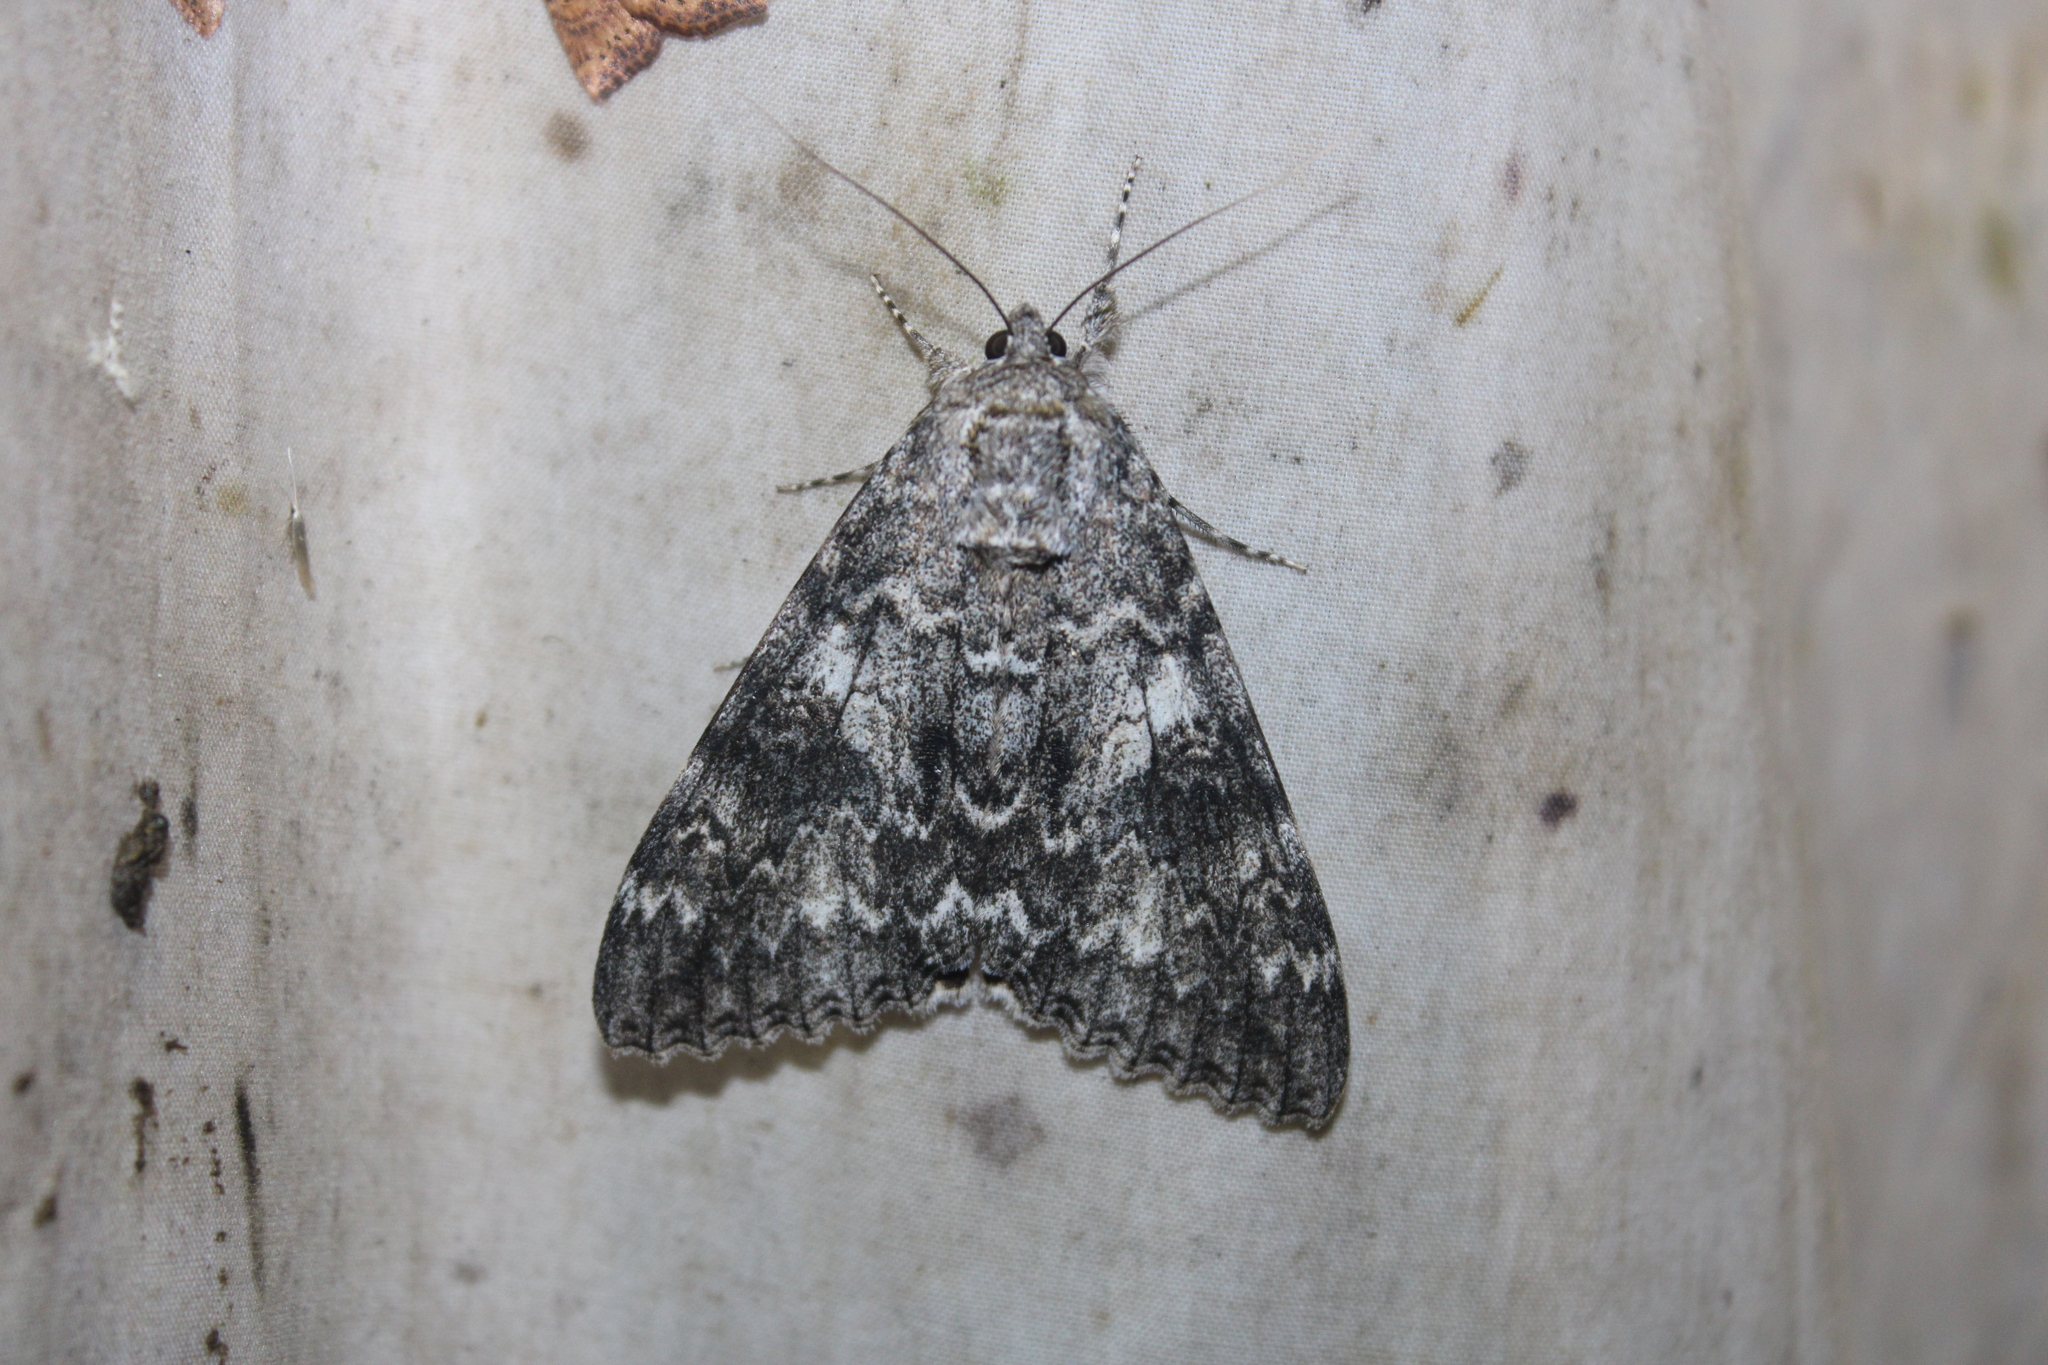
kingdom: Animalia
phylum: Arthropoda
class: Insecta
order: Lepidoptera
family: Erebidae
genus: Catocala
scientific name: Catocala unijuga
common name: Once-married underwing
